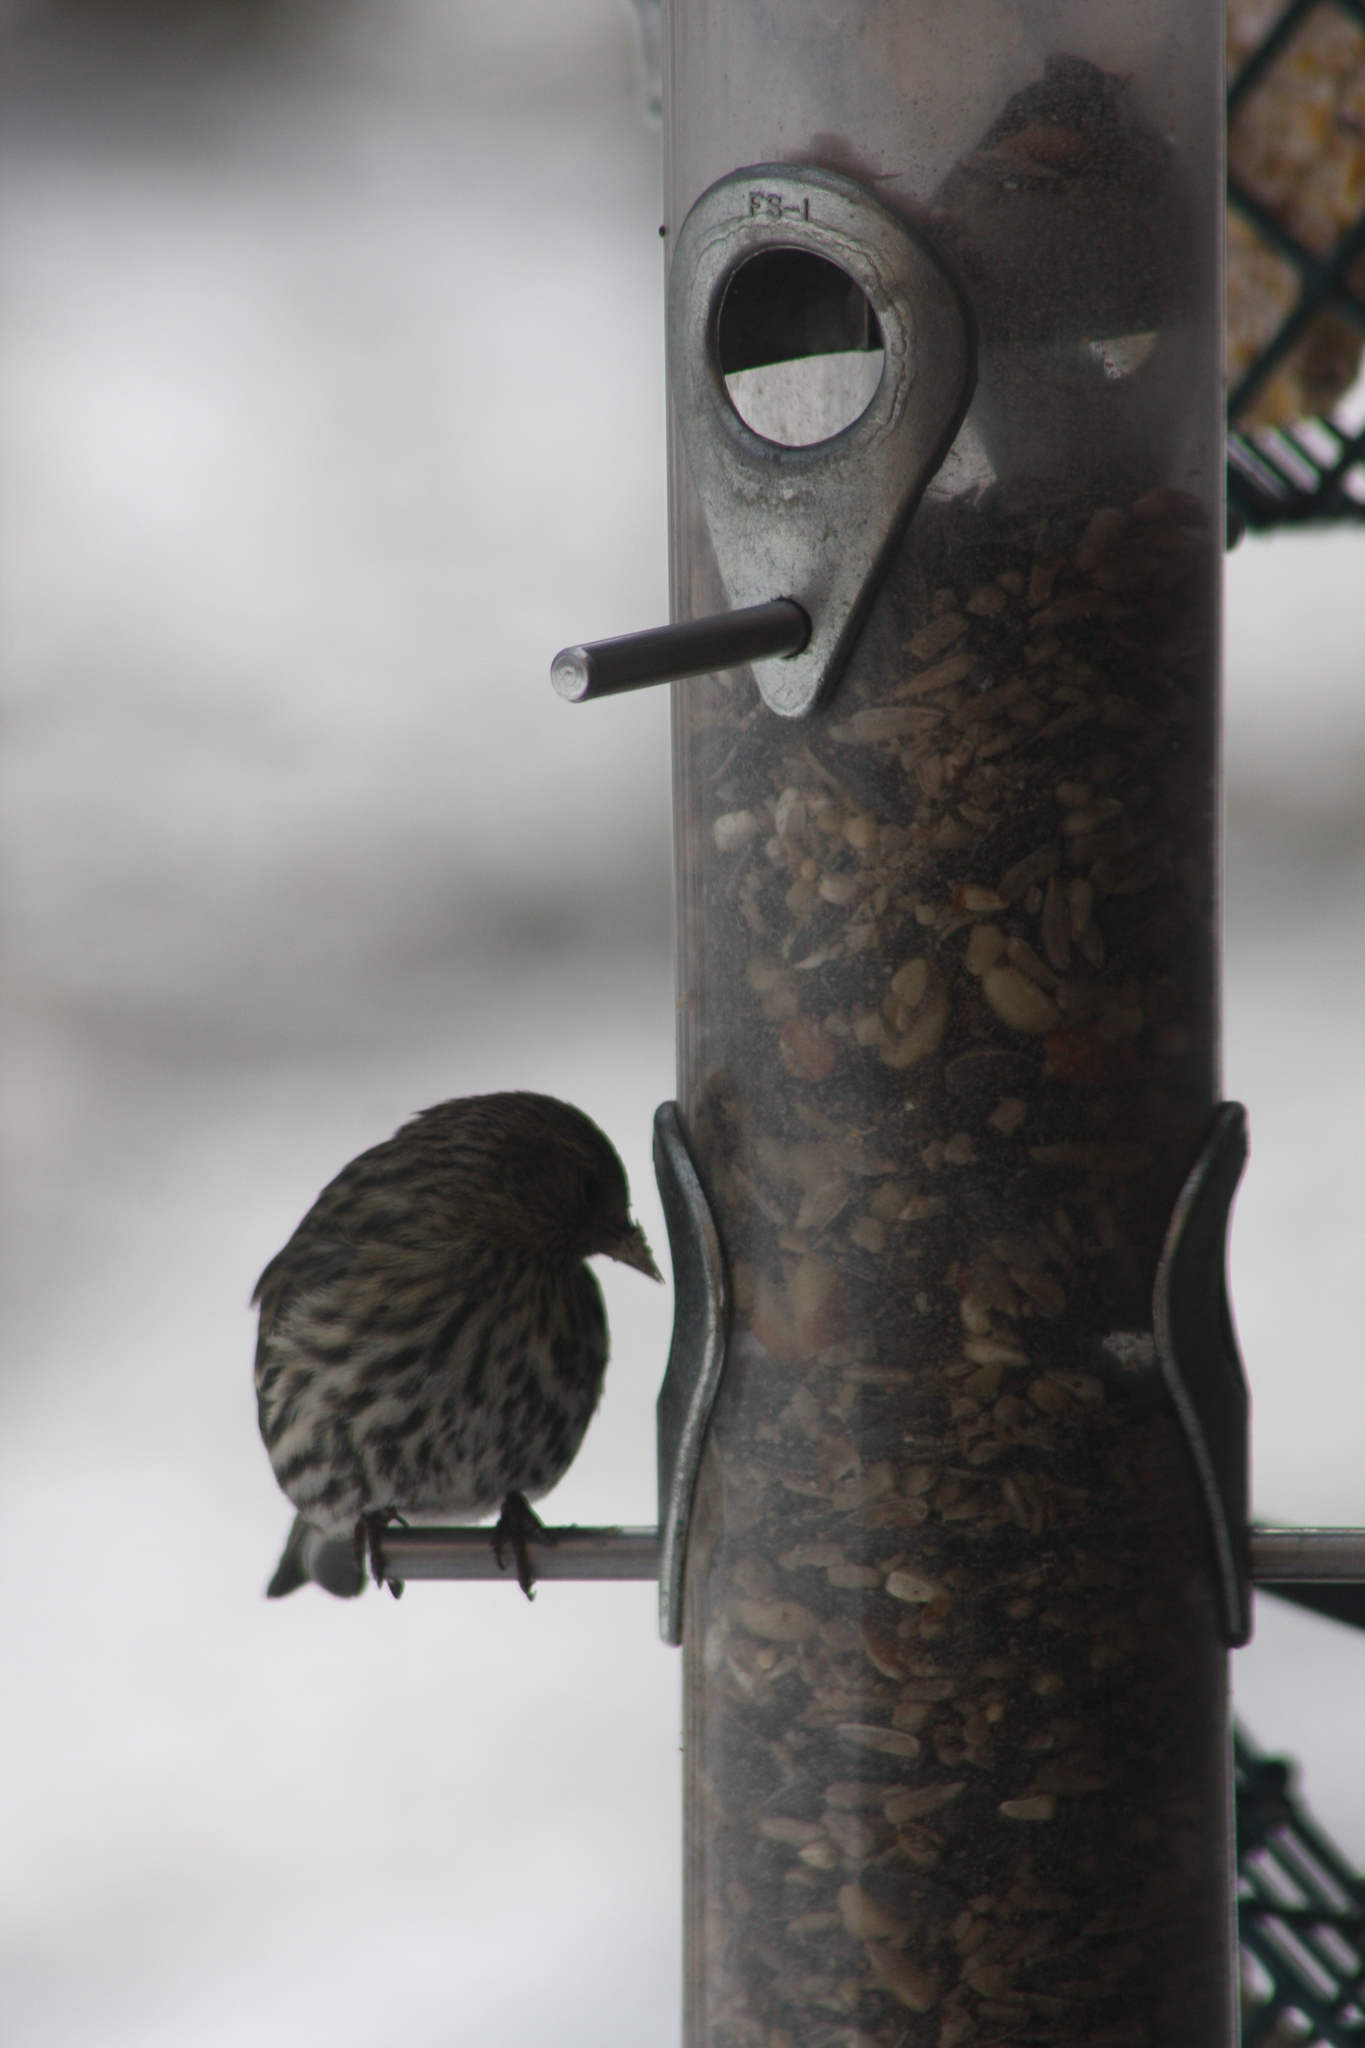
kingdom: Animalia
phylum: Chordata
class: Aves
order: Passeriformes
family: Fringillidae
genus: Spinus
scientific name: Spinus pinus
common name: Pine siskin
